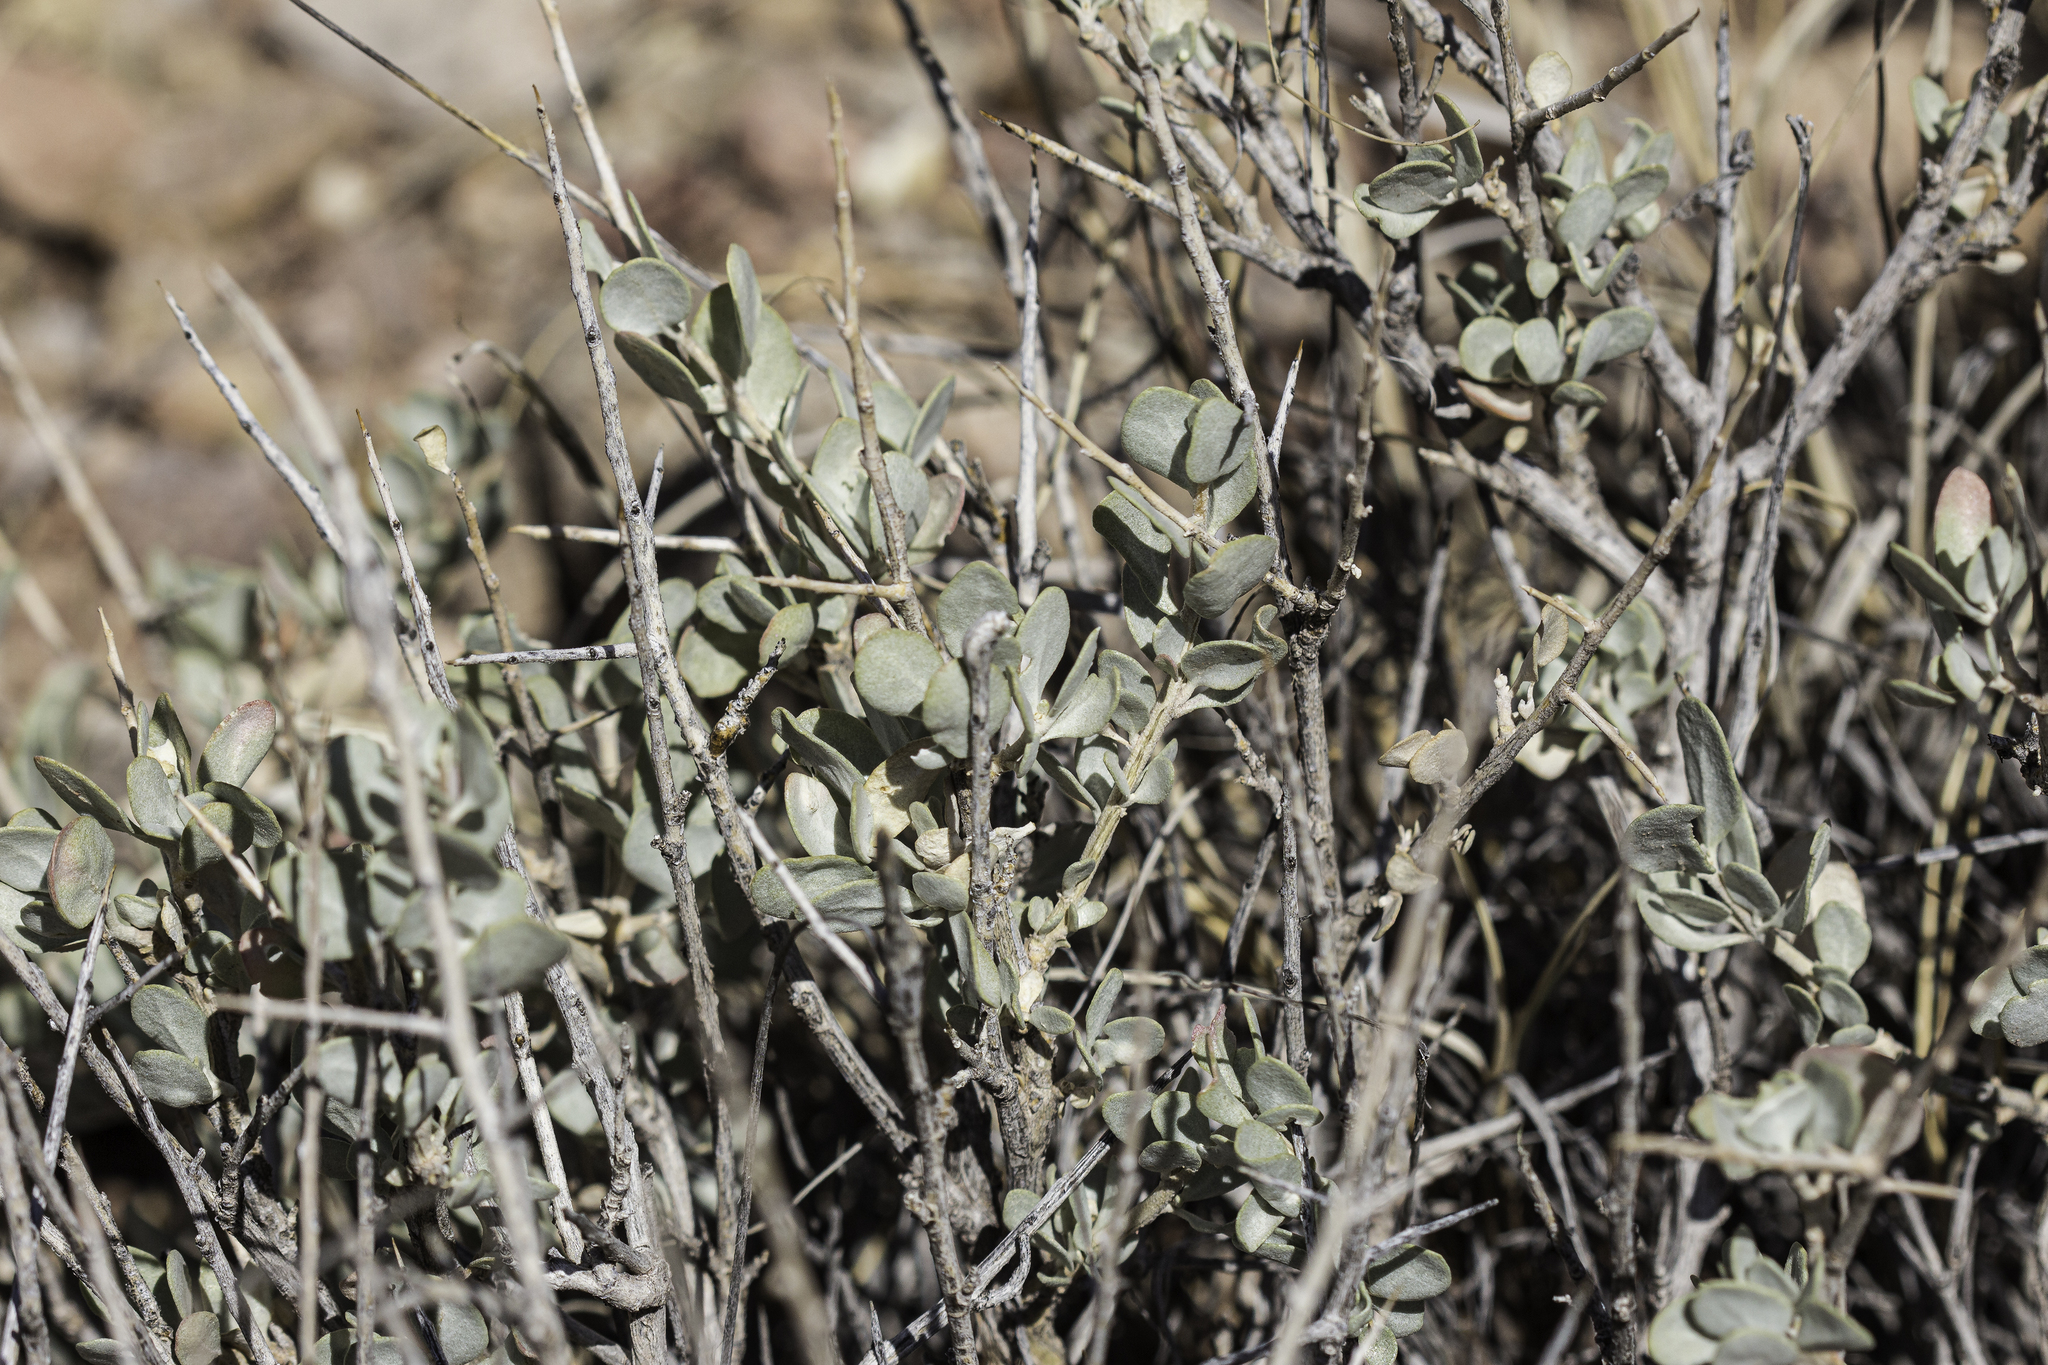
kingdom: Plantae
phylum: Tracheophyta
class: Magnoliopsida
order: Caryophyllales
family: Amaranthaceae
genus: Atriplex
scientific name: Atriplex confertifolia
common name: Shadscale
